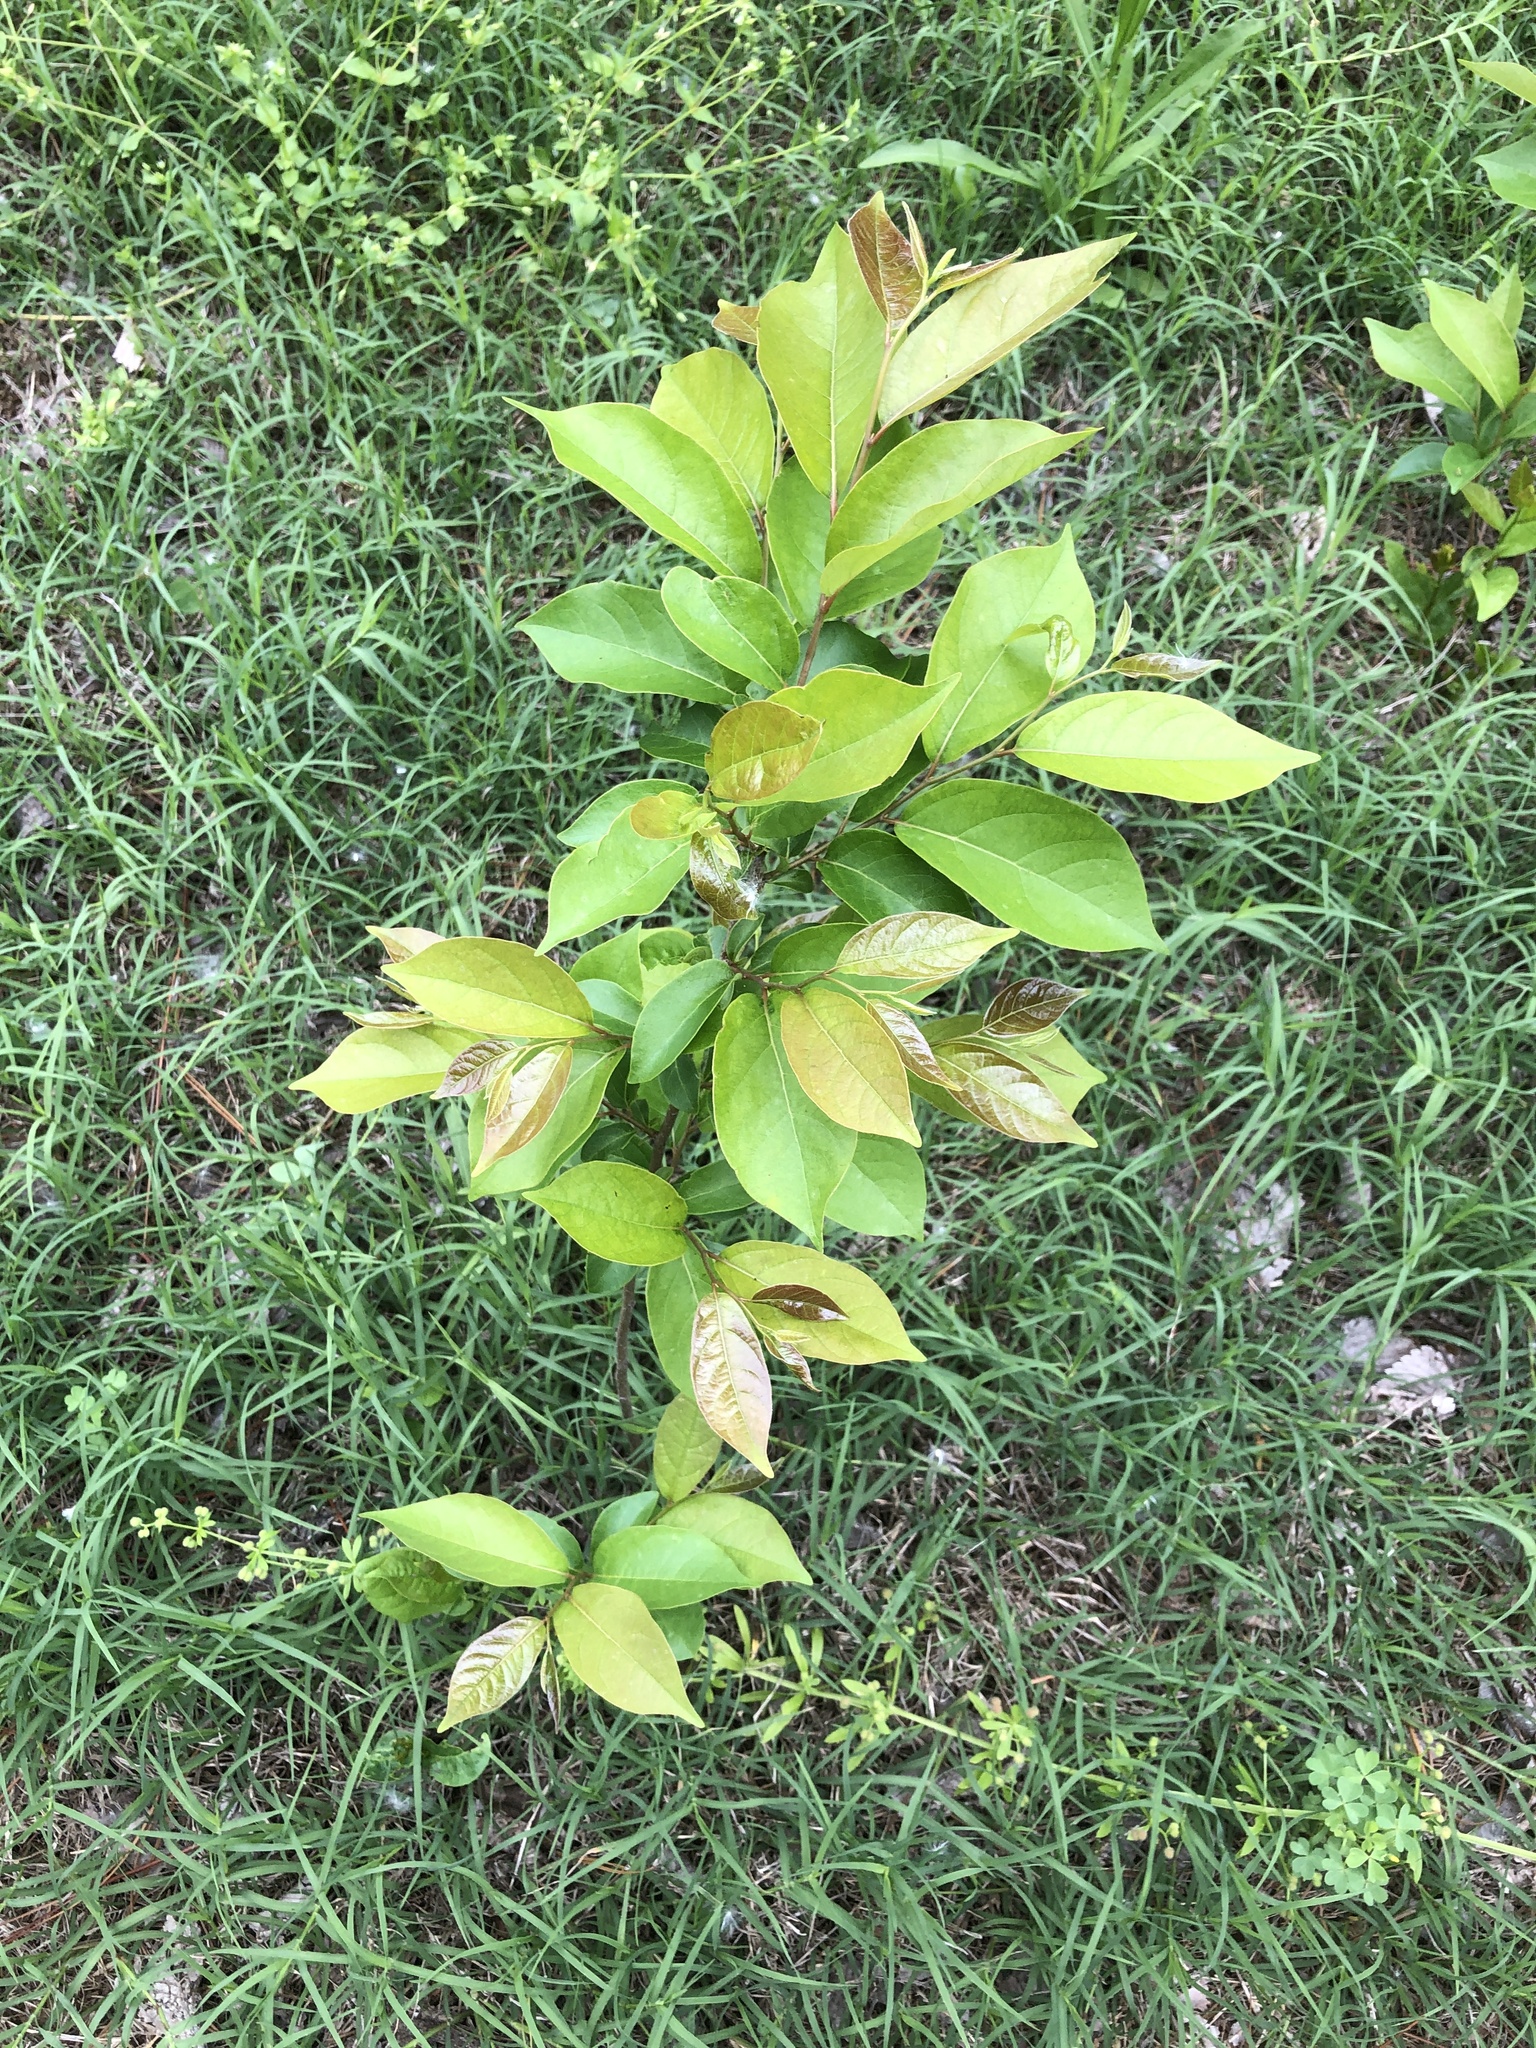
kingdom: Plantae
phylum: Tracheophyta
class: Magnoliopsida
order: Ericales
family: Ebenaceae
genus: Diospyros
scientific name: Diospyros virginiana
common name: Persimmon
